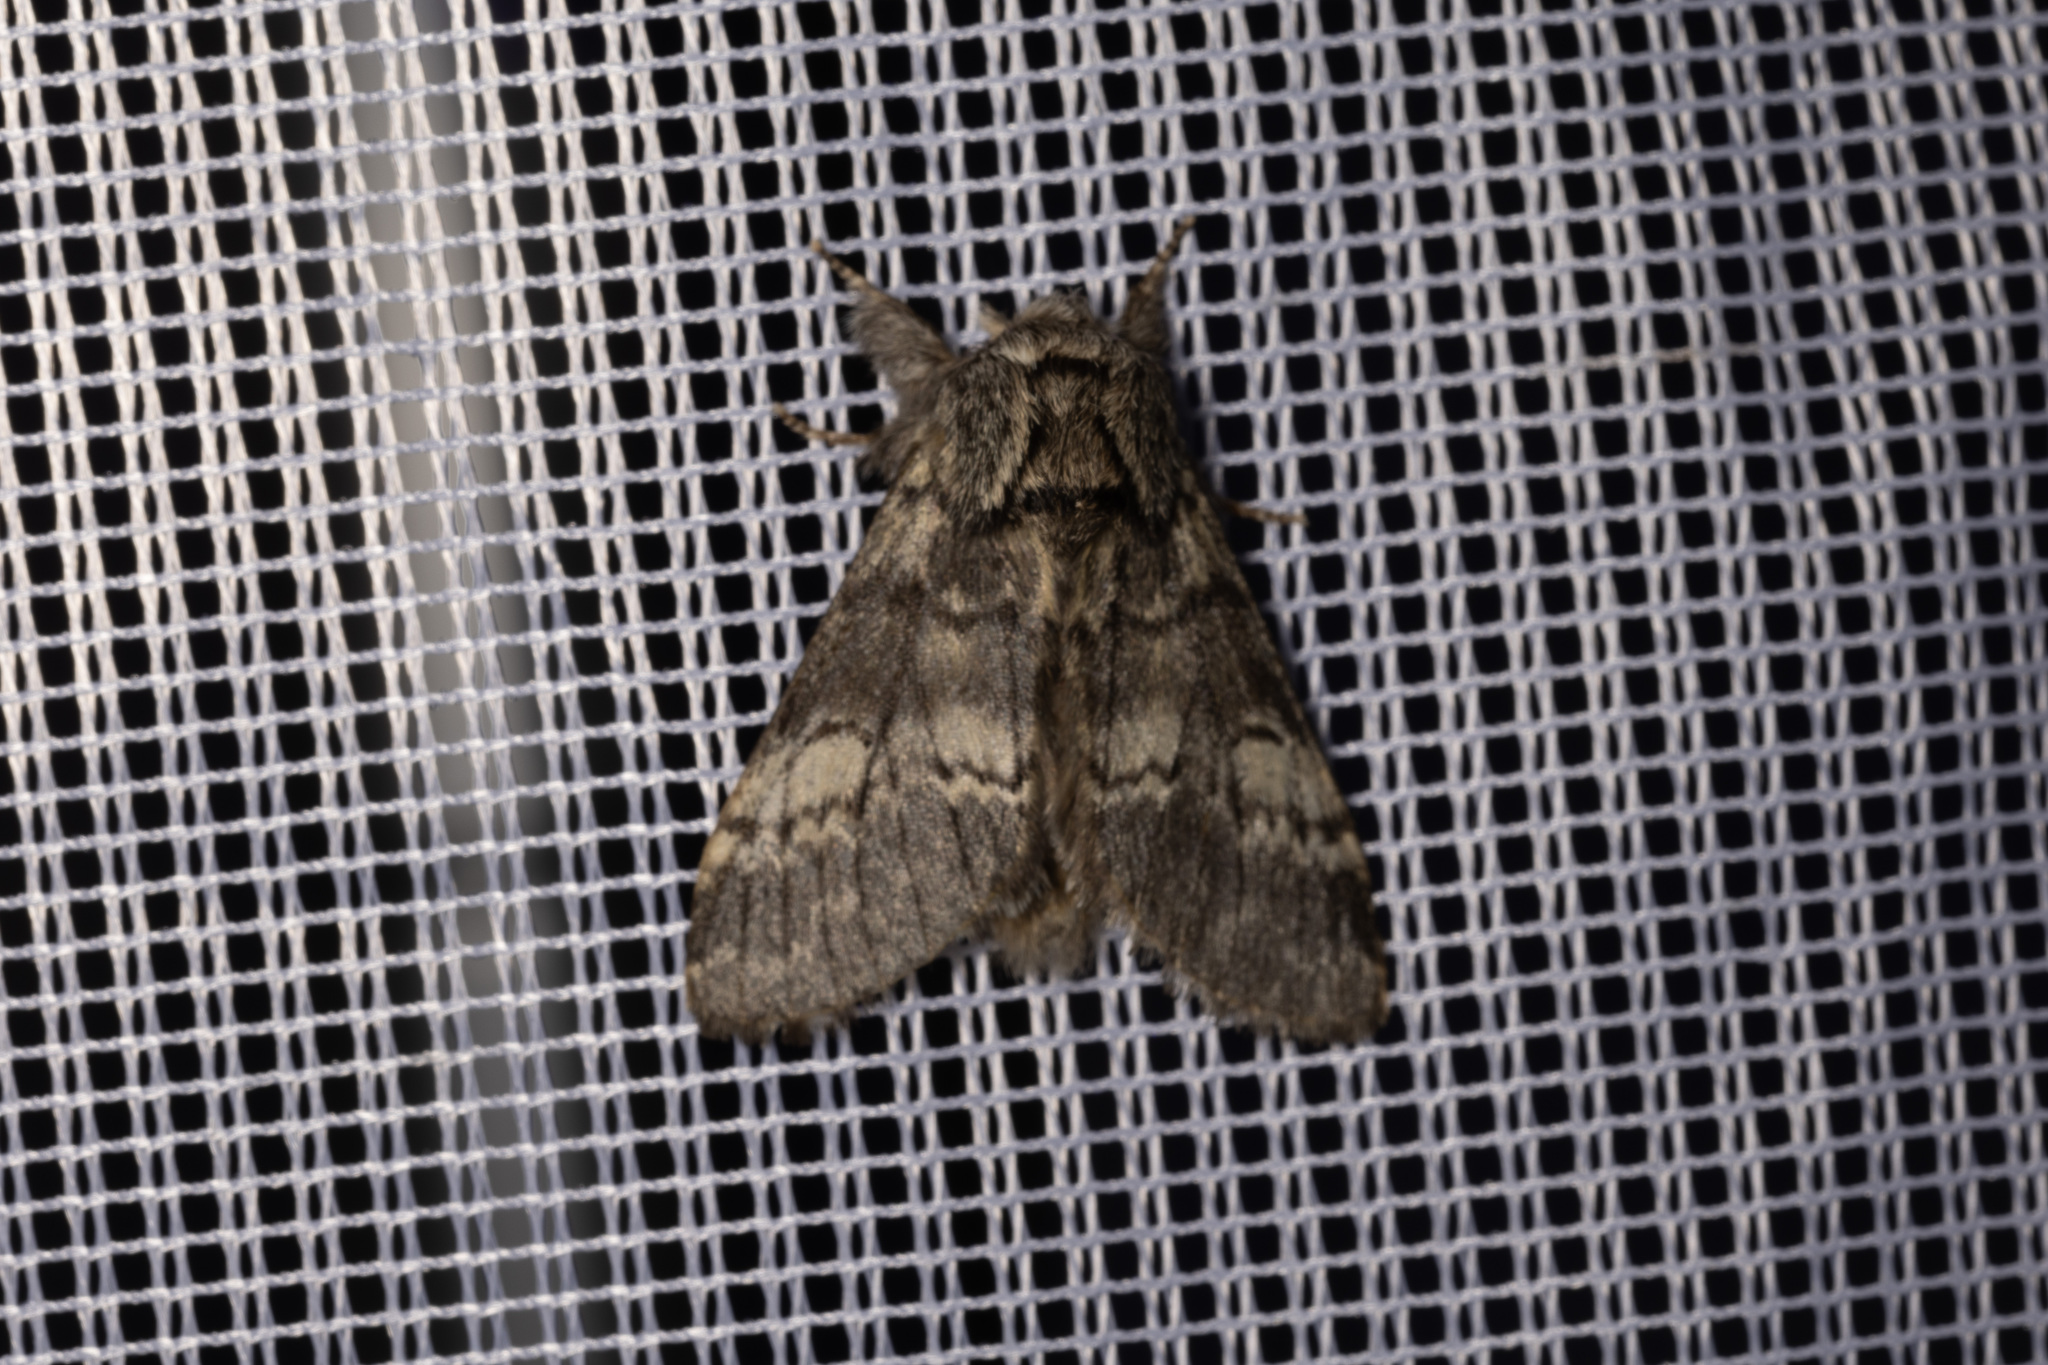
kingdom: Animalia
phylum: Arthropoda
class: Insecta
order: Lepidoptera
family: Notodontidae
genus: Drymonia
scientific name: Drymonia ruficornis
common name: Lunar marbled brown
